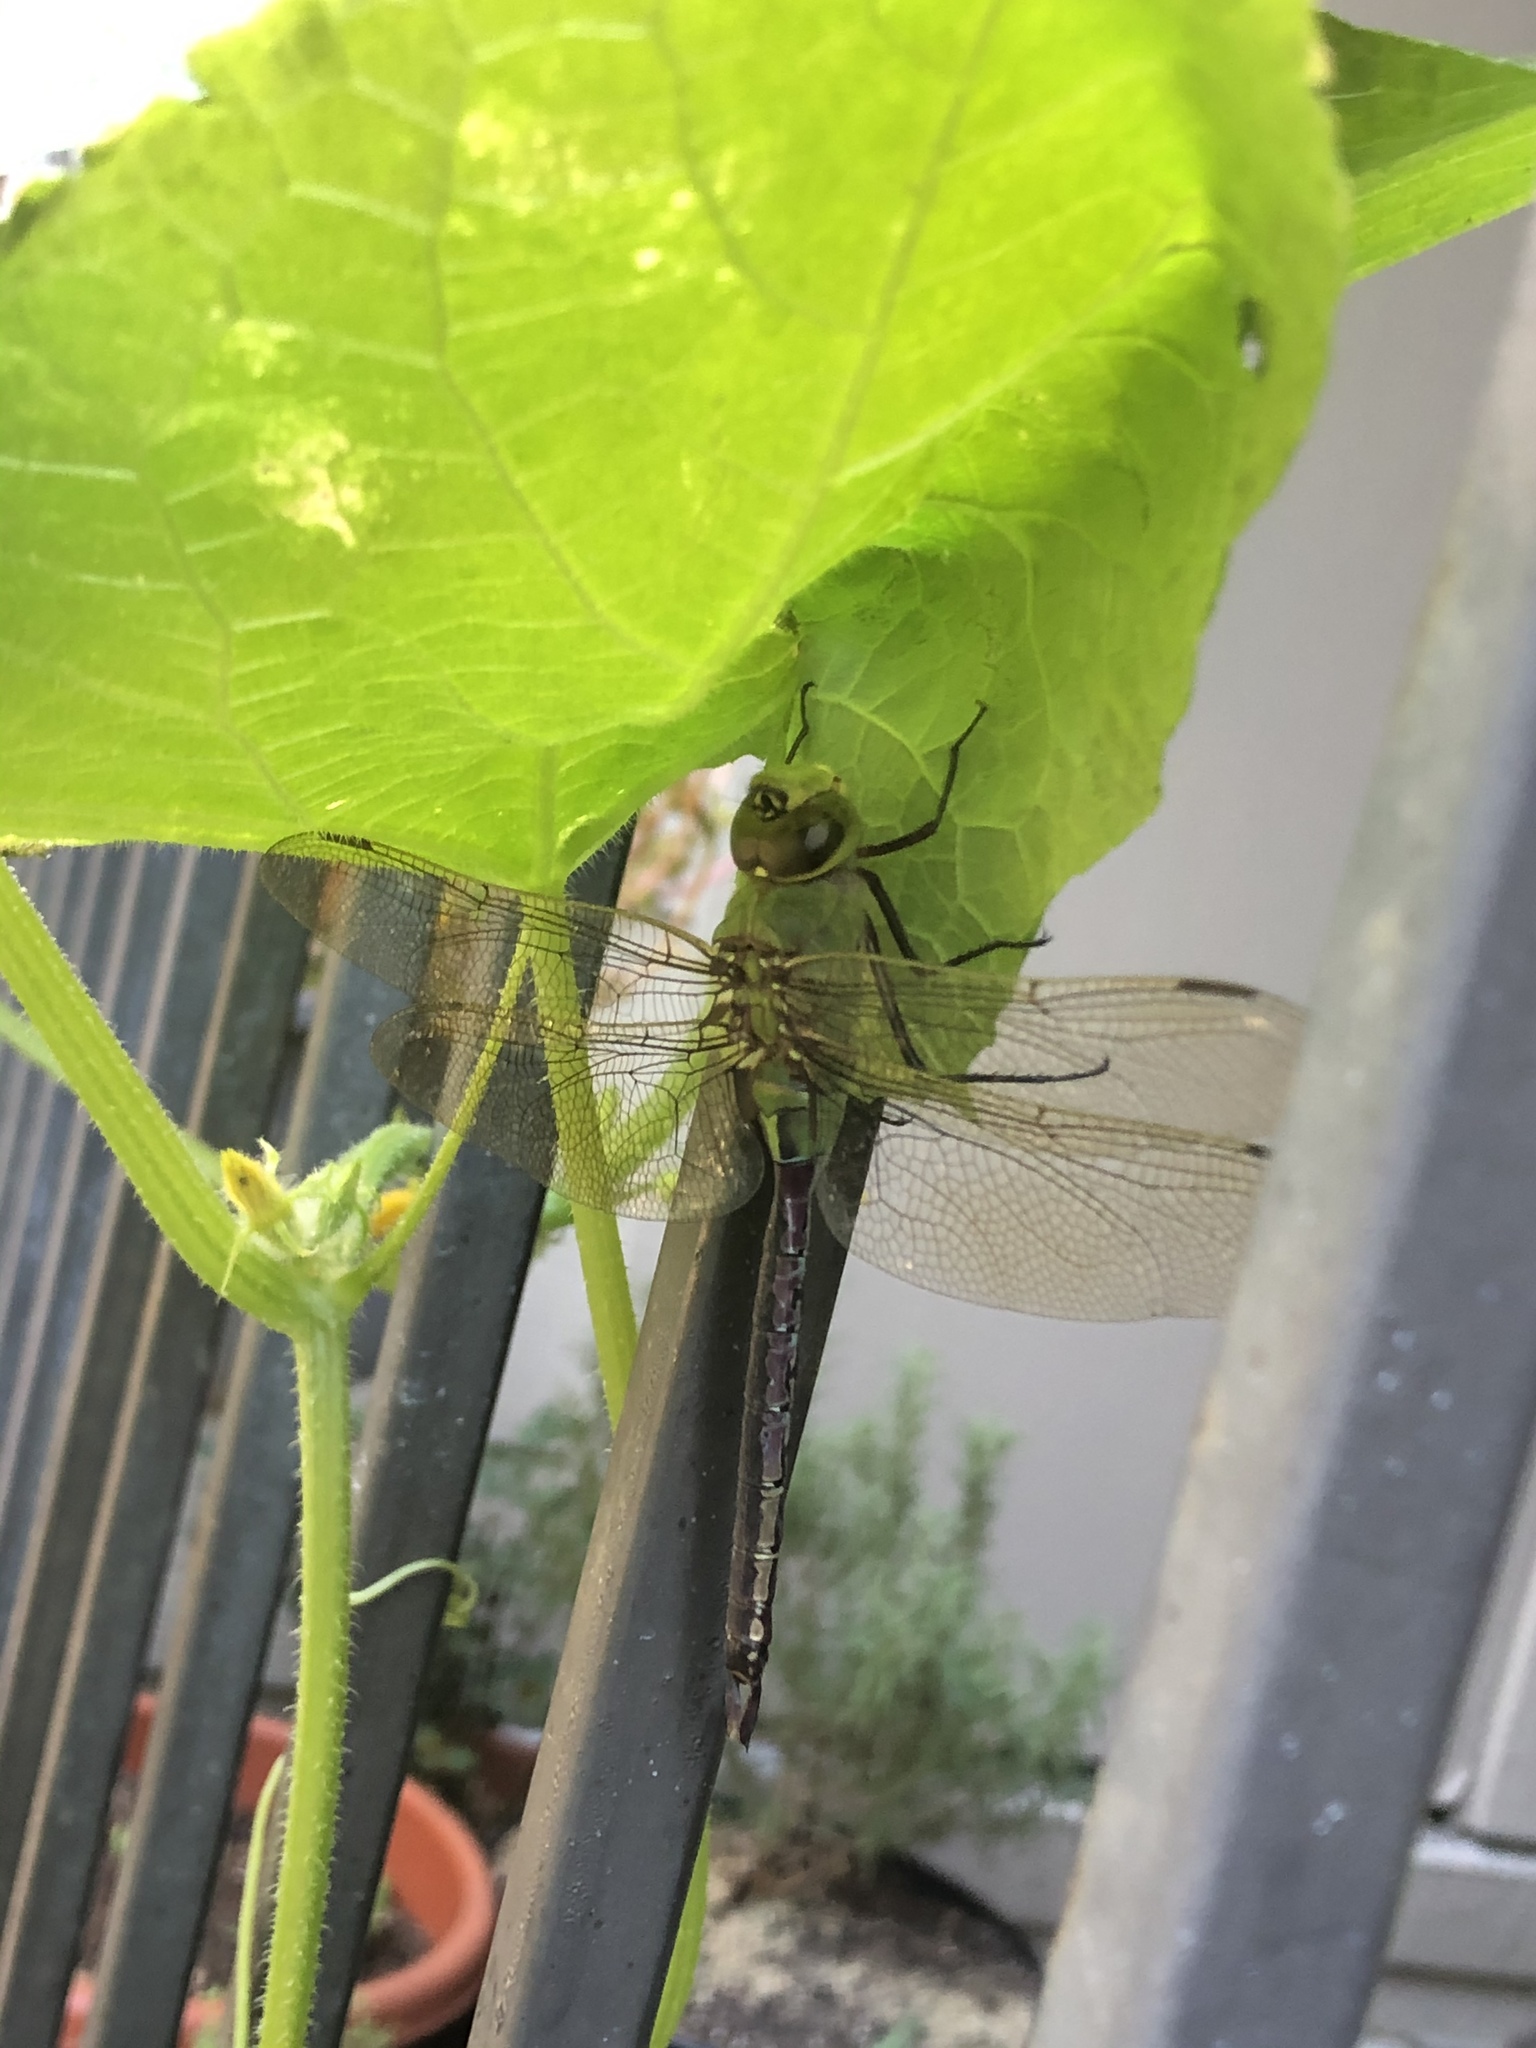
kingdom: Animalia
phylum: Arthropoda
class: Insecta
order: Odonata
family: Aeshnidae
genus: Anax
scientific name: Anax junius
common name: Common green darner
